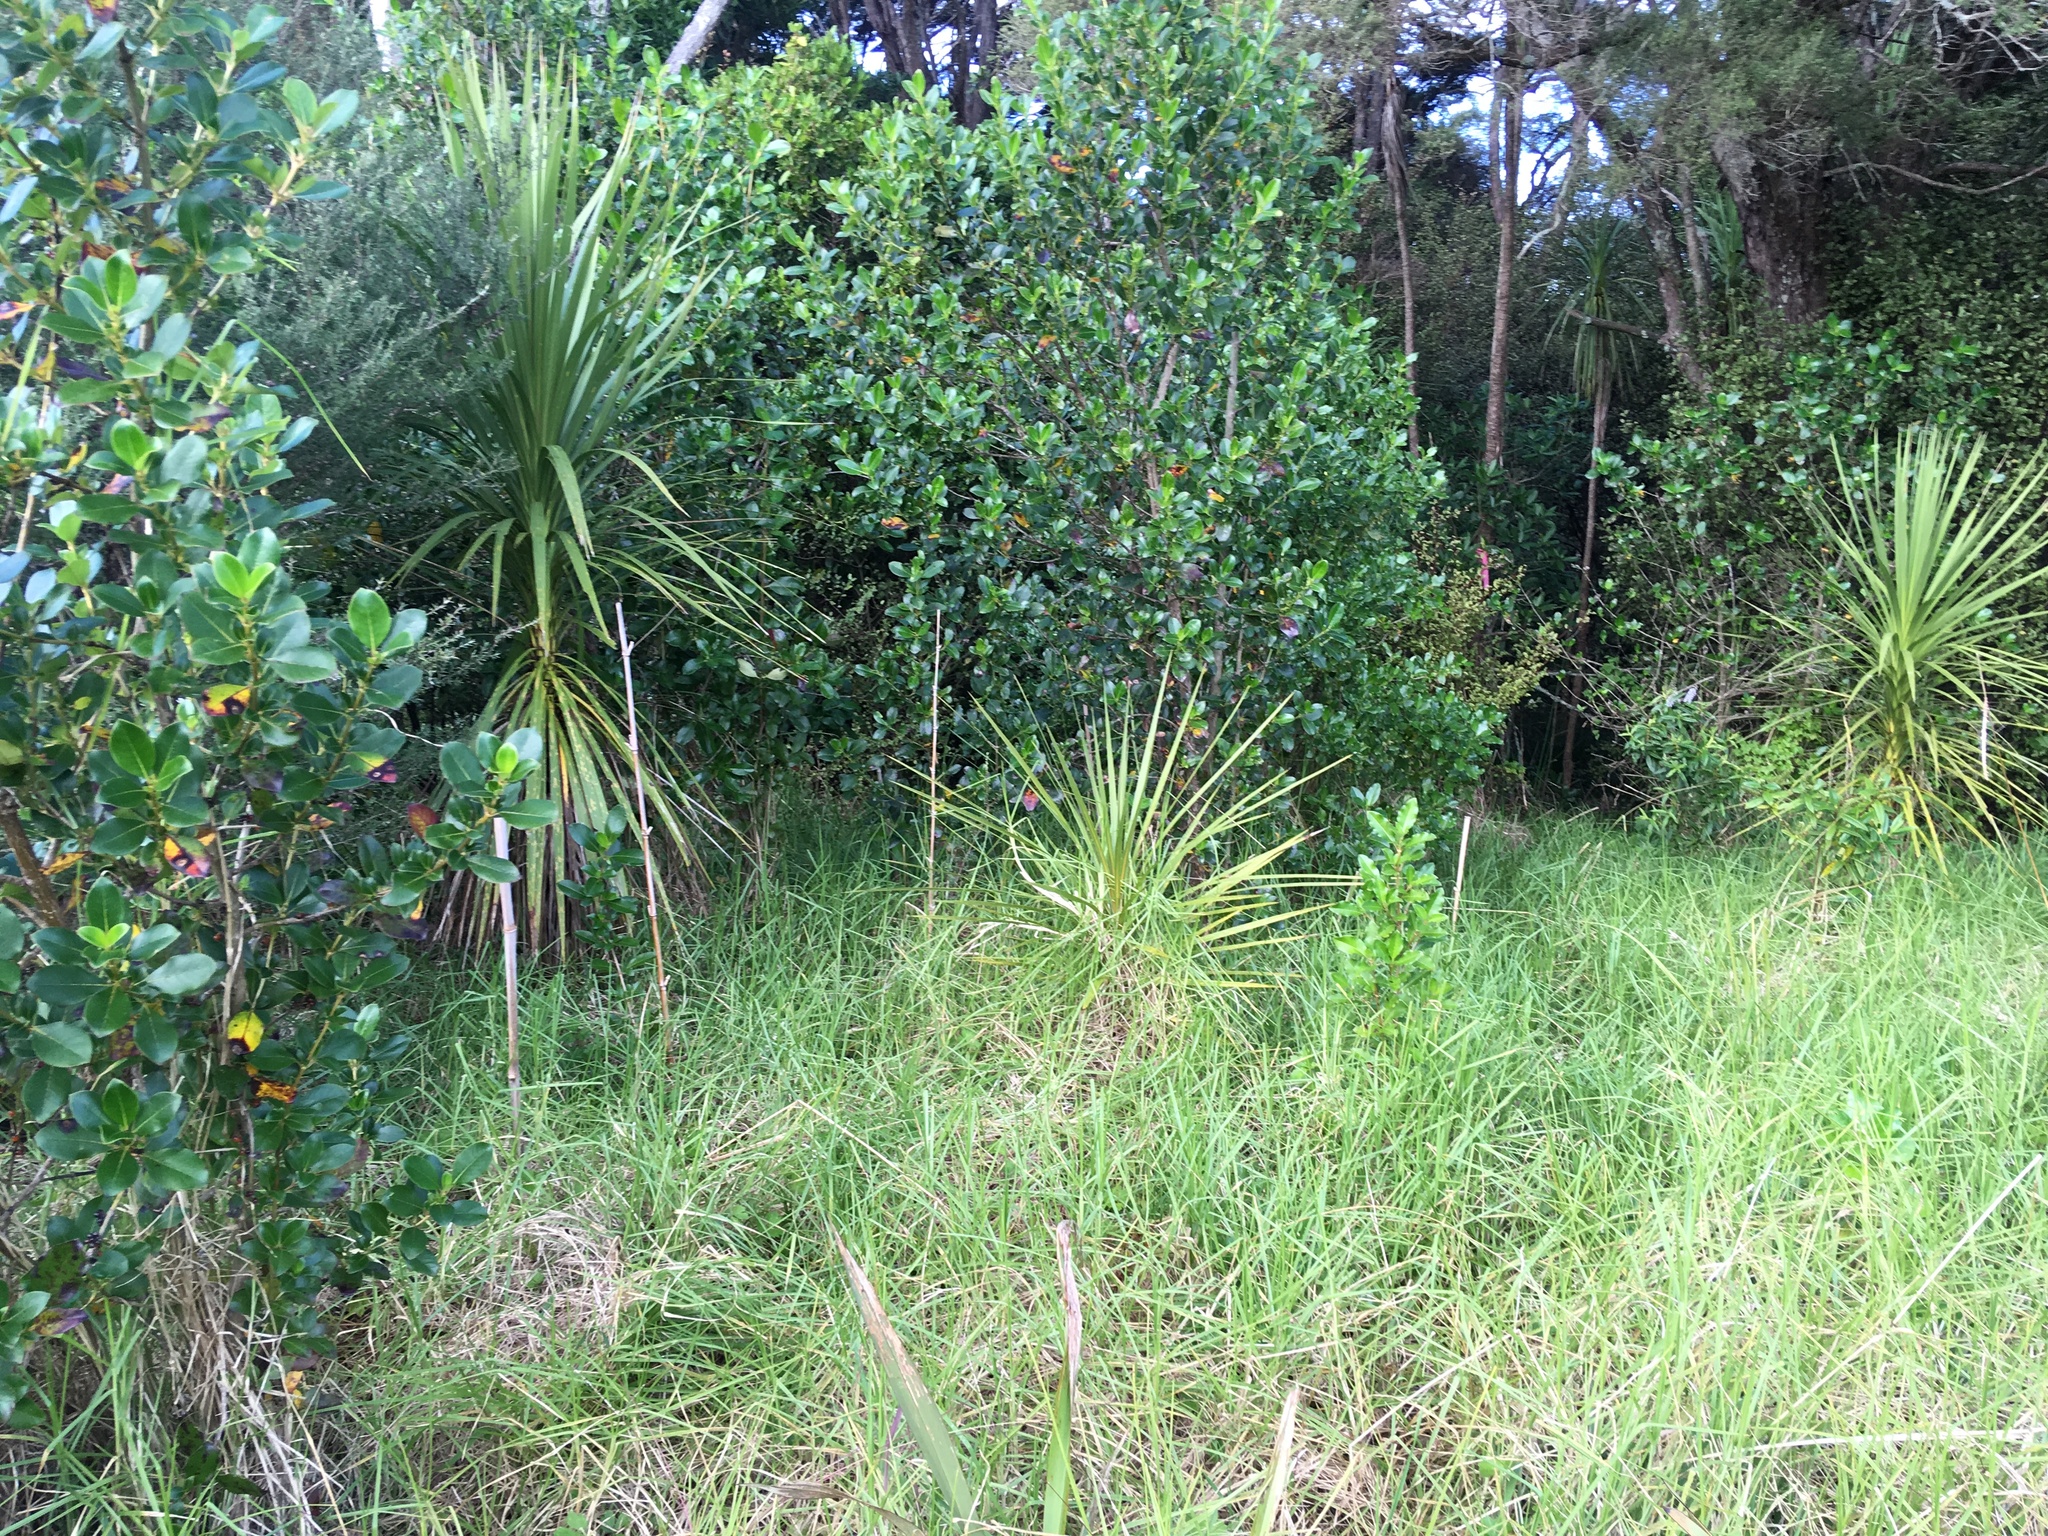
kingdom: Plantae
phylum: Tracheophyta
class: Liliopsida
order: Asparagales
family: Asparagaceae
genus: Cordyline
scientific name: Cordyline australis
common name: Cabbage-palm
